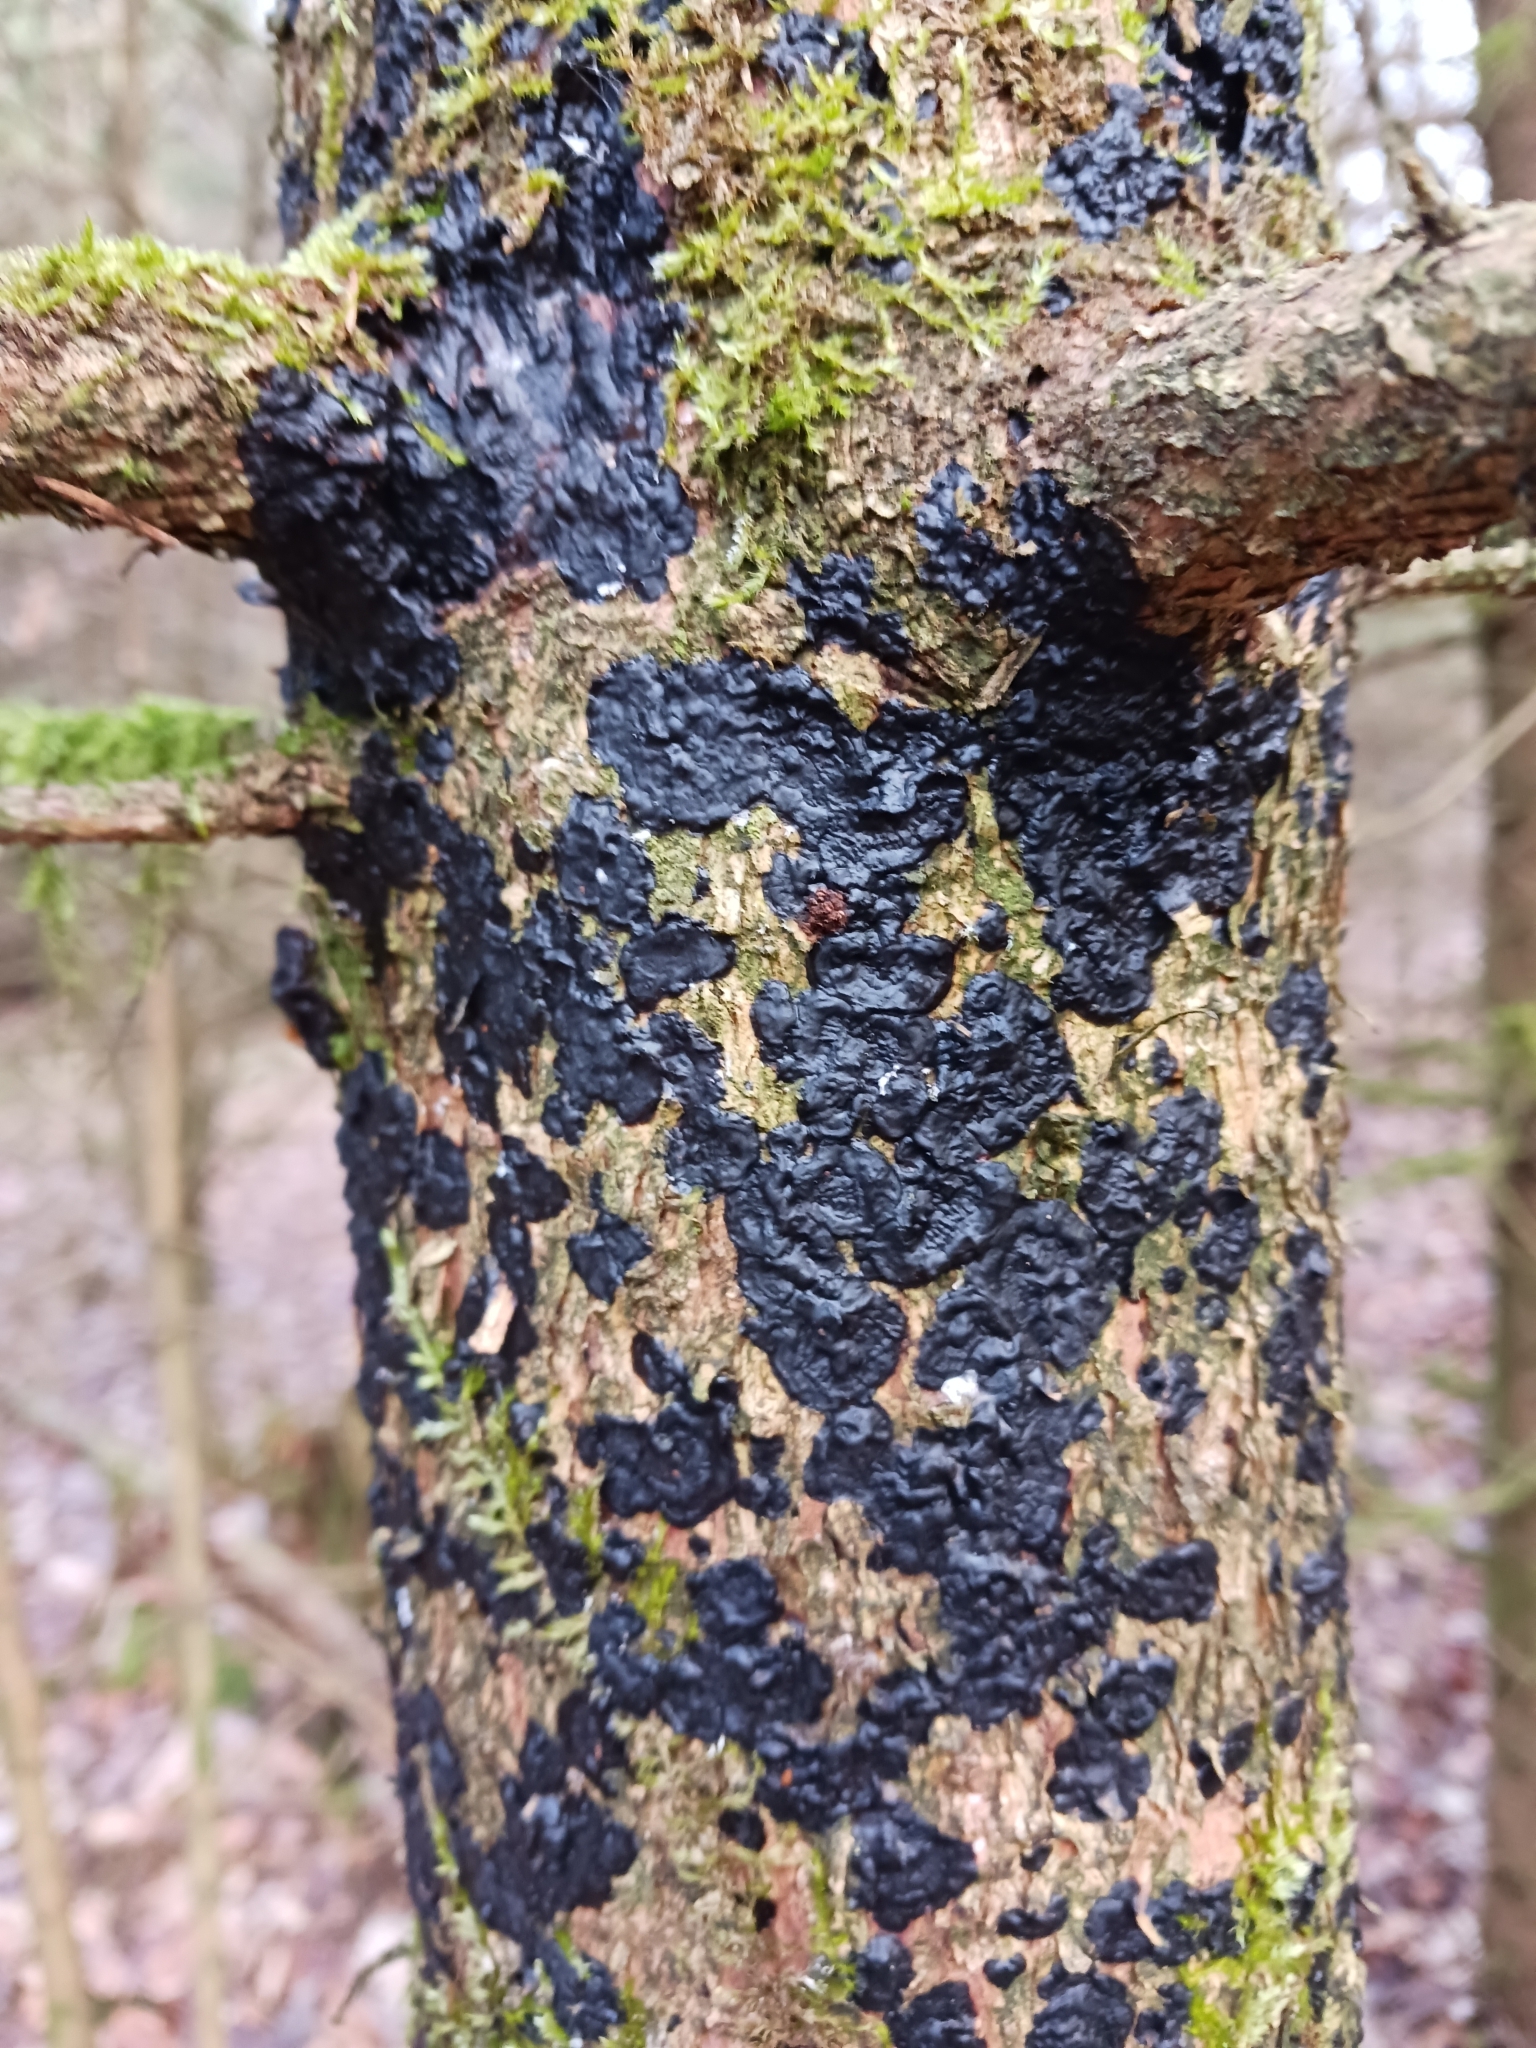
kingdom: Fungi
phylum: Basidiomycota
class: Agaricomycetes
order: Auriculariales
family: Auriculariaceae
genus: Exidia
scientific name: Exidia pithya
